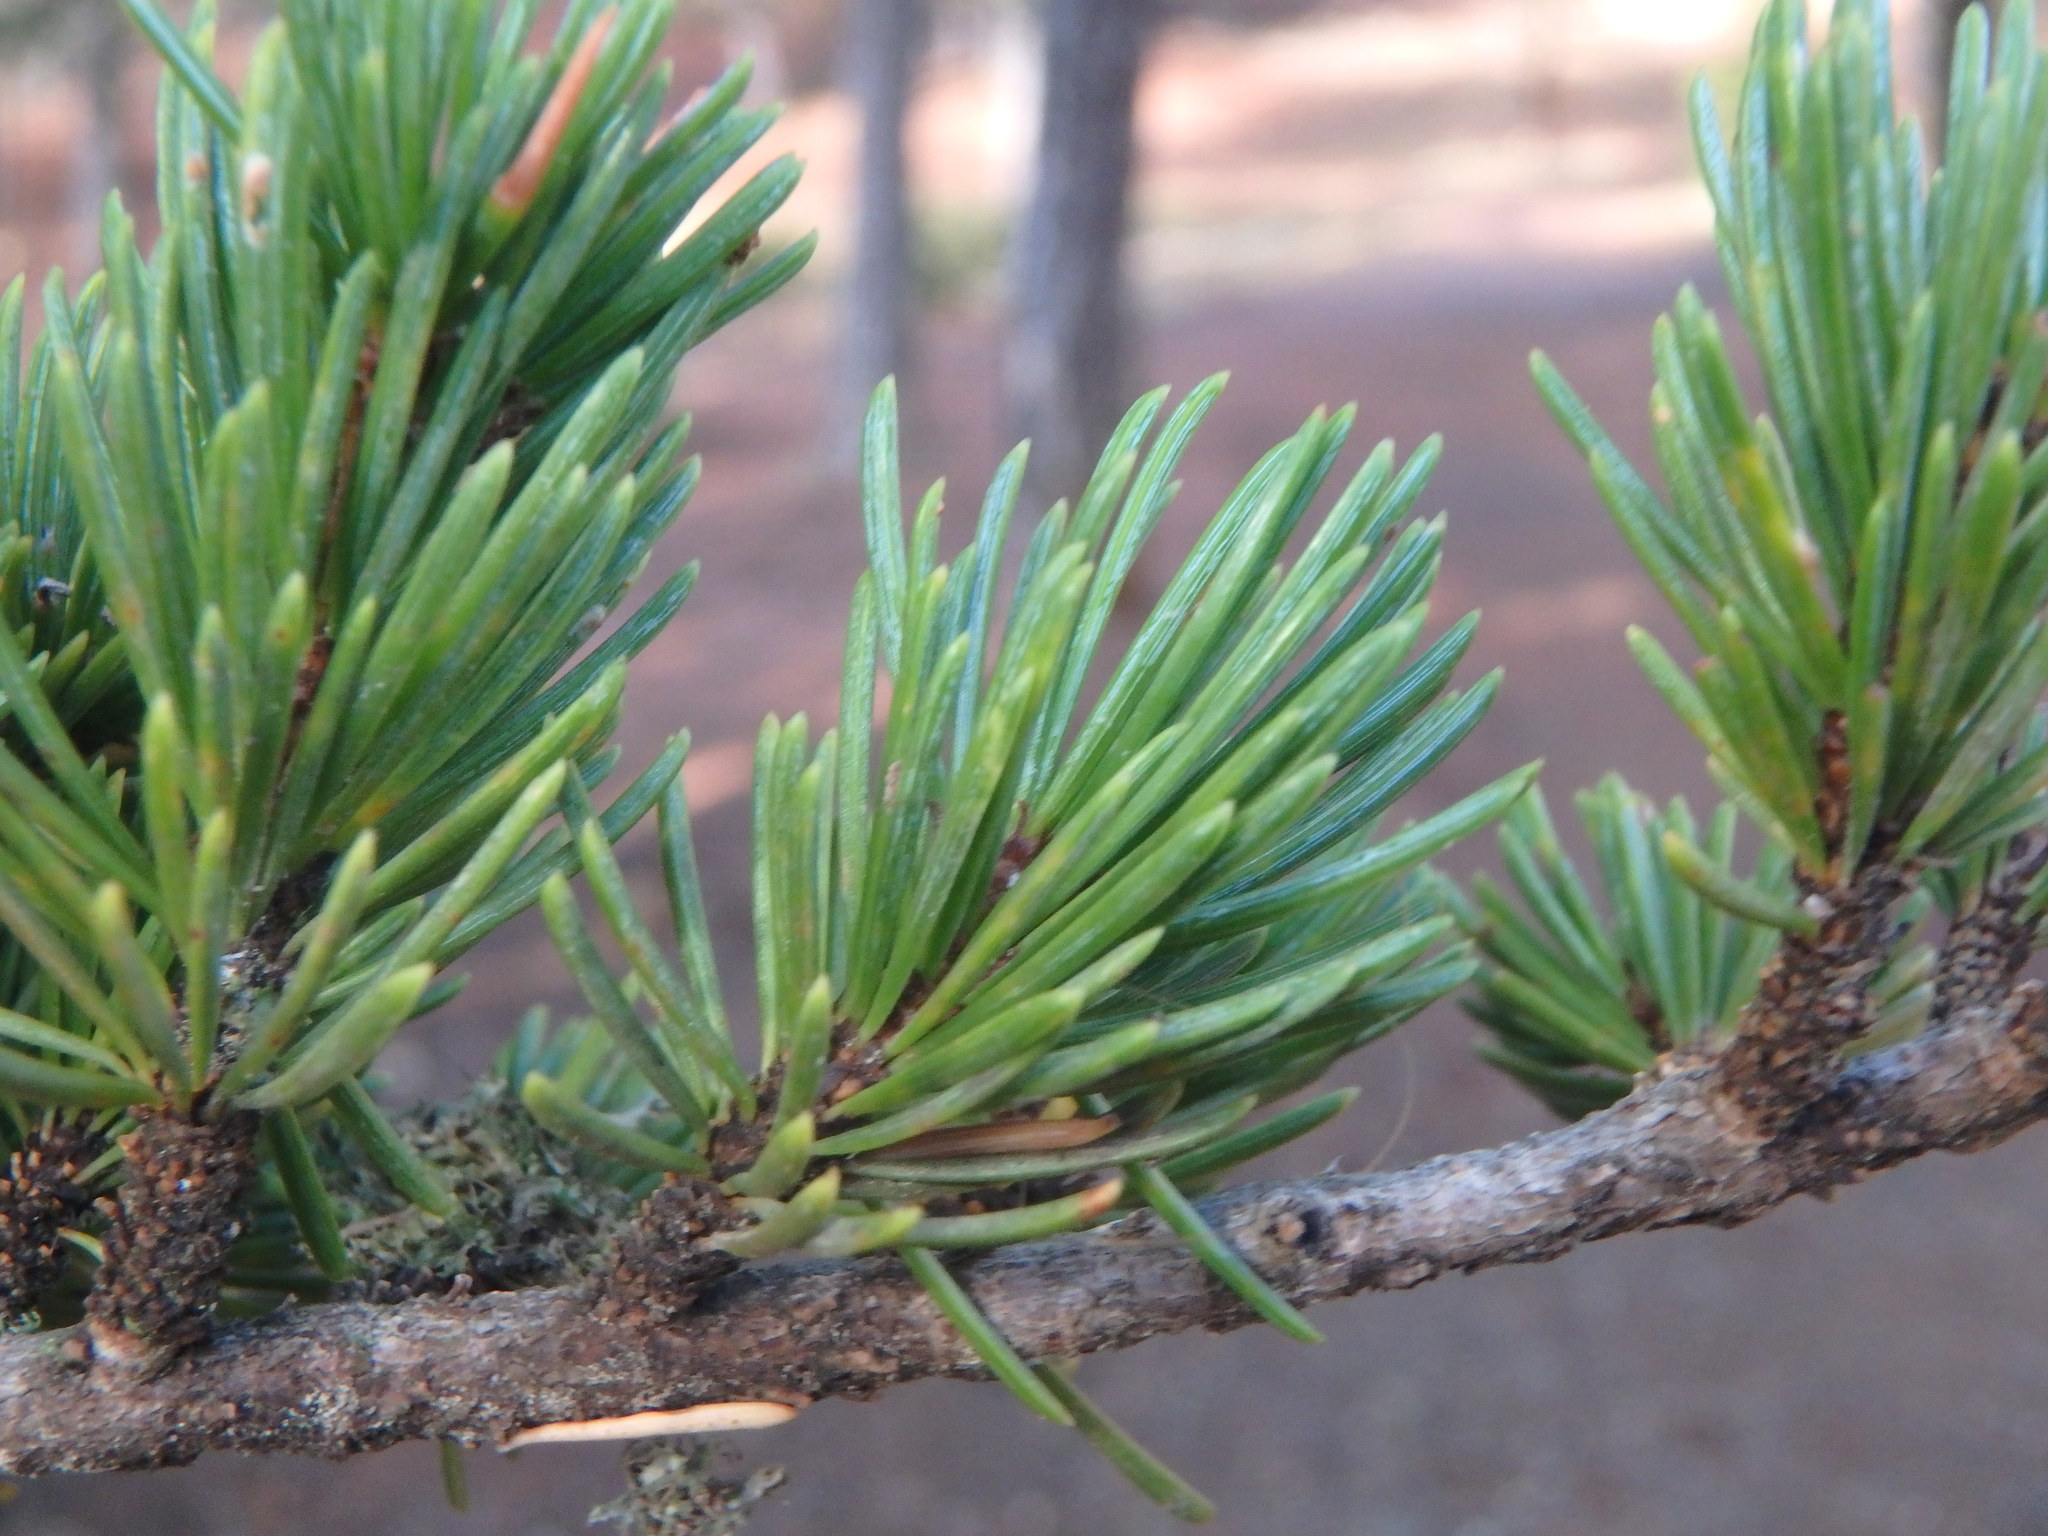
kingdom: Plantae
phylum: Tracheophyta
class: Pinopsida
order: Pinales
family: Pinaceae
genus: Cedrus
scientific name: Cedrus brevifolia
